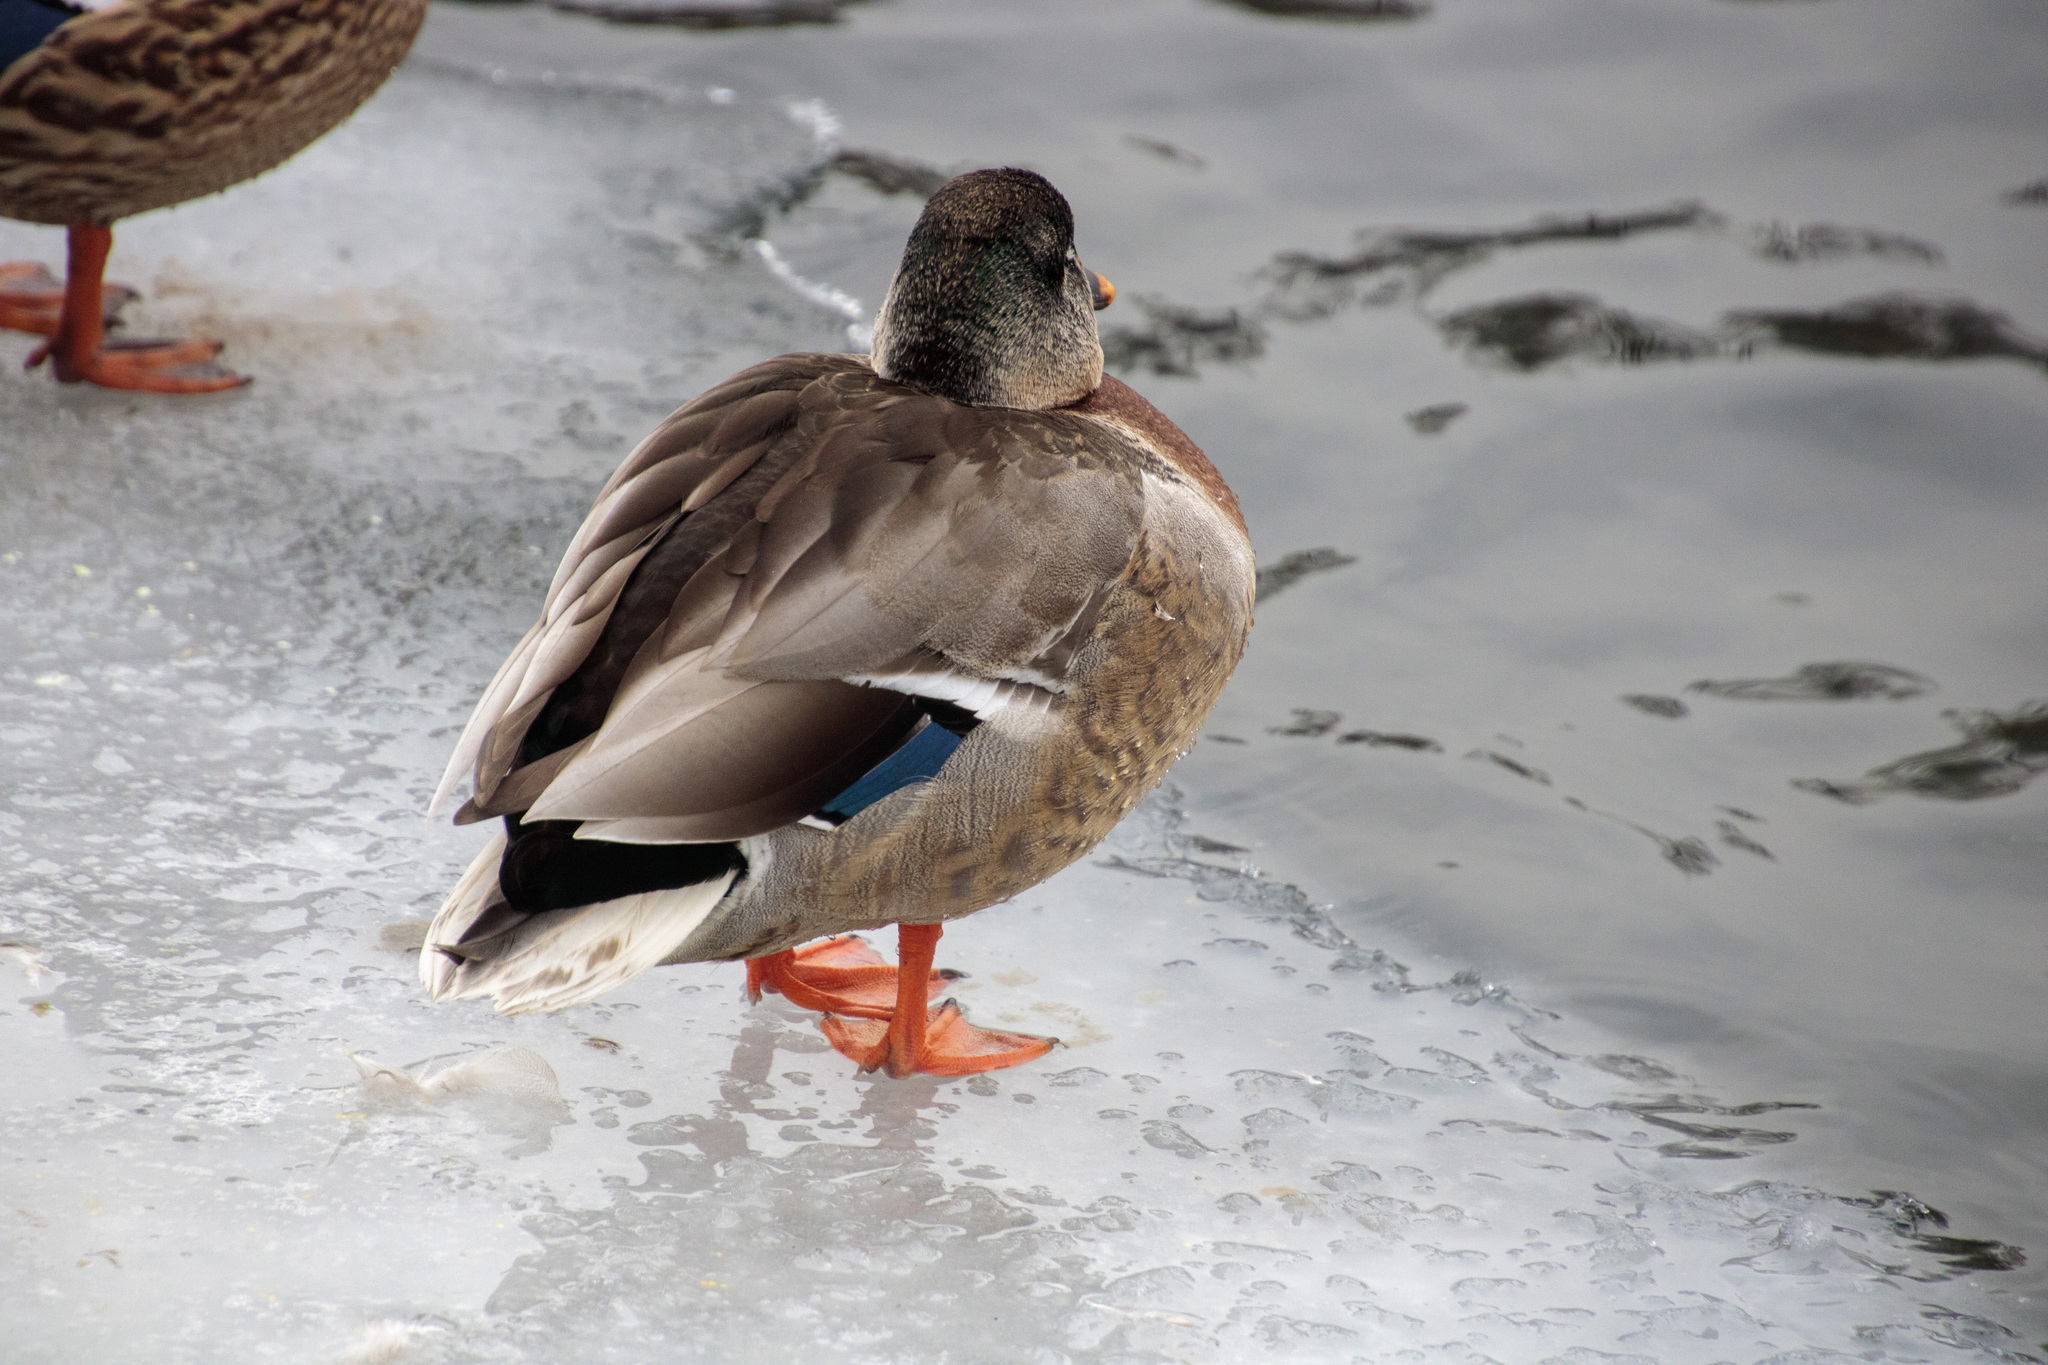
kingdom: Animalia
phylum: Chordata
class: Aves
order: Anseriformes
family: Anatidae
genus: Anas
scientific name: Anas platyrhynchos
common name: Mallard
